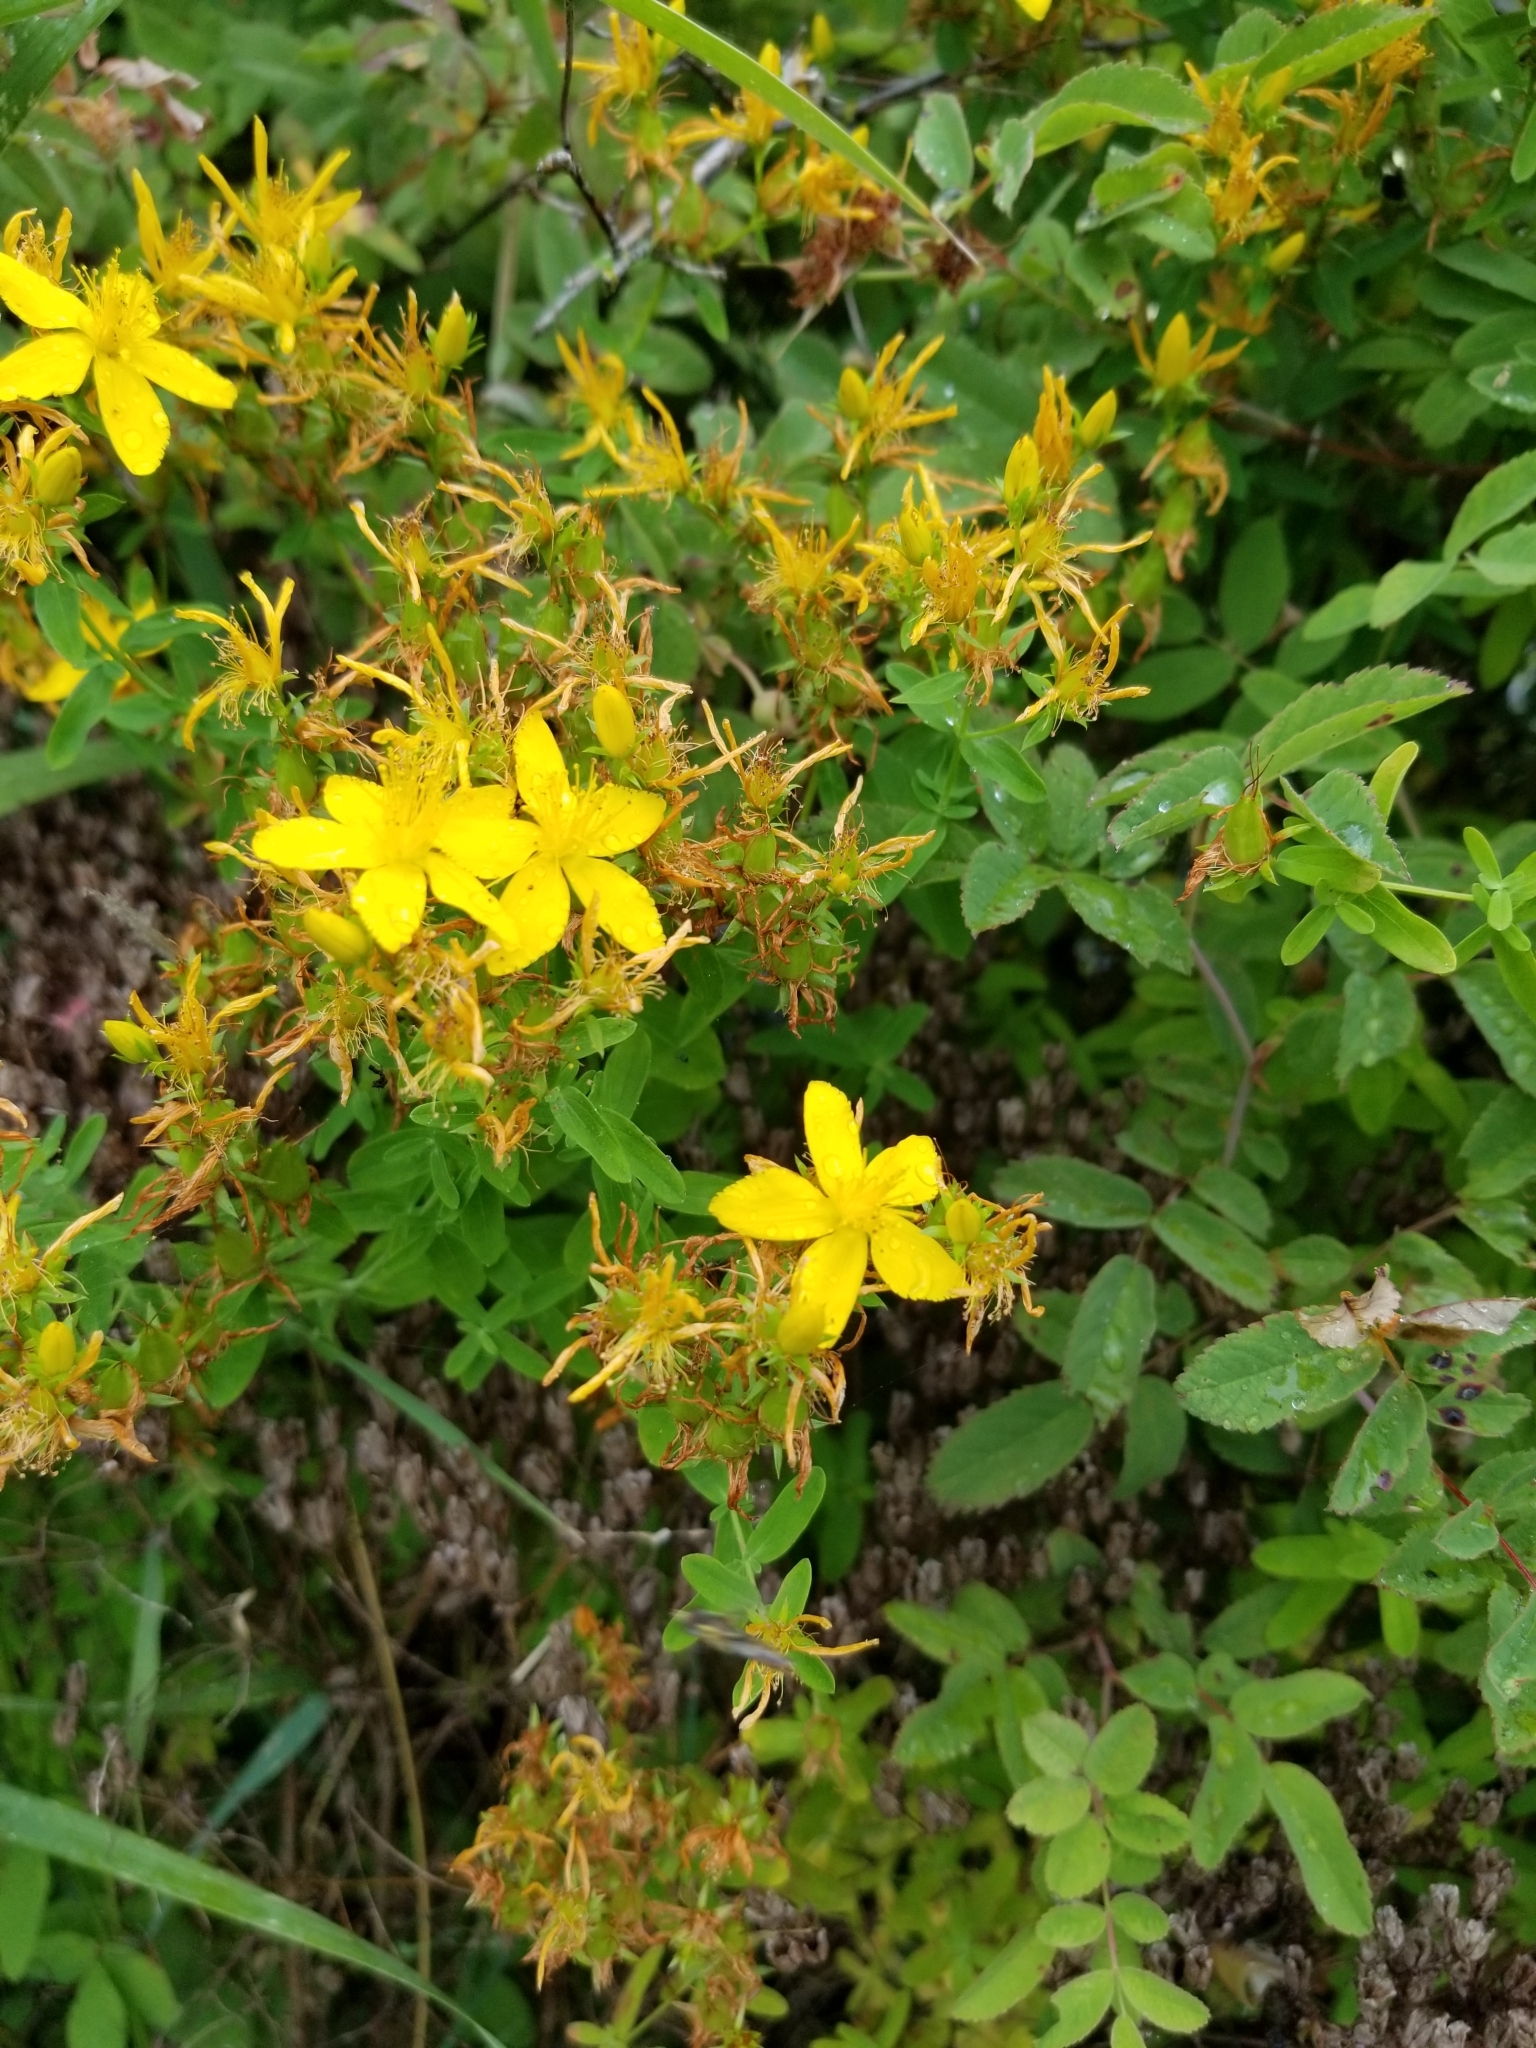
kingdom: Plantae
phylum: Tracheophyta
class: Magnoliopsida
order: Malpighiales
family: Hypericaceae
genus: Hypericum
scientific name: Hypericum perforatum
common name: Common st. johnswort
